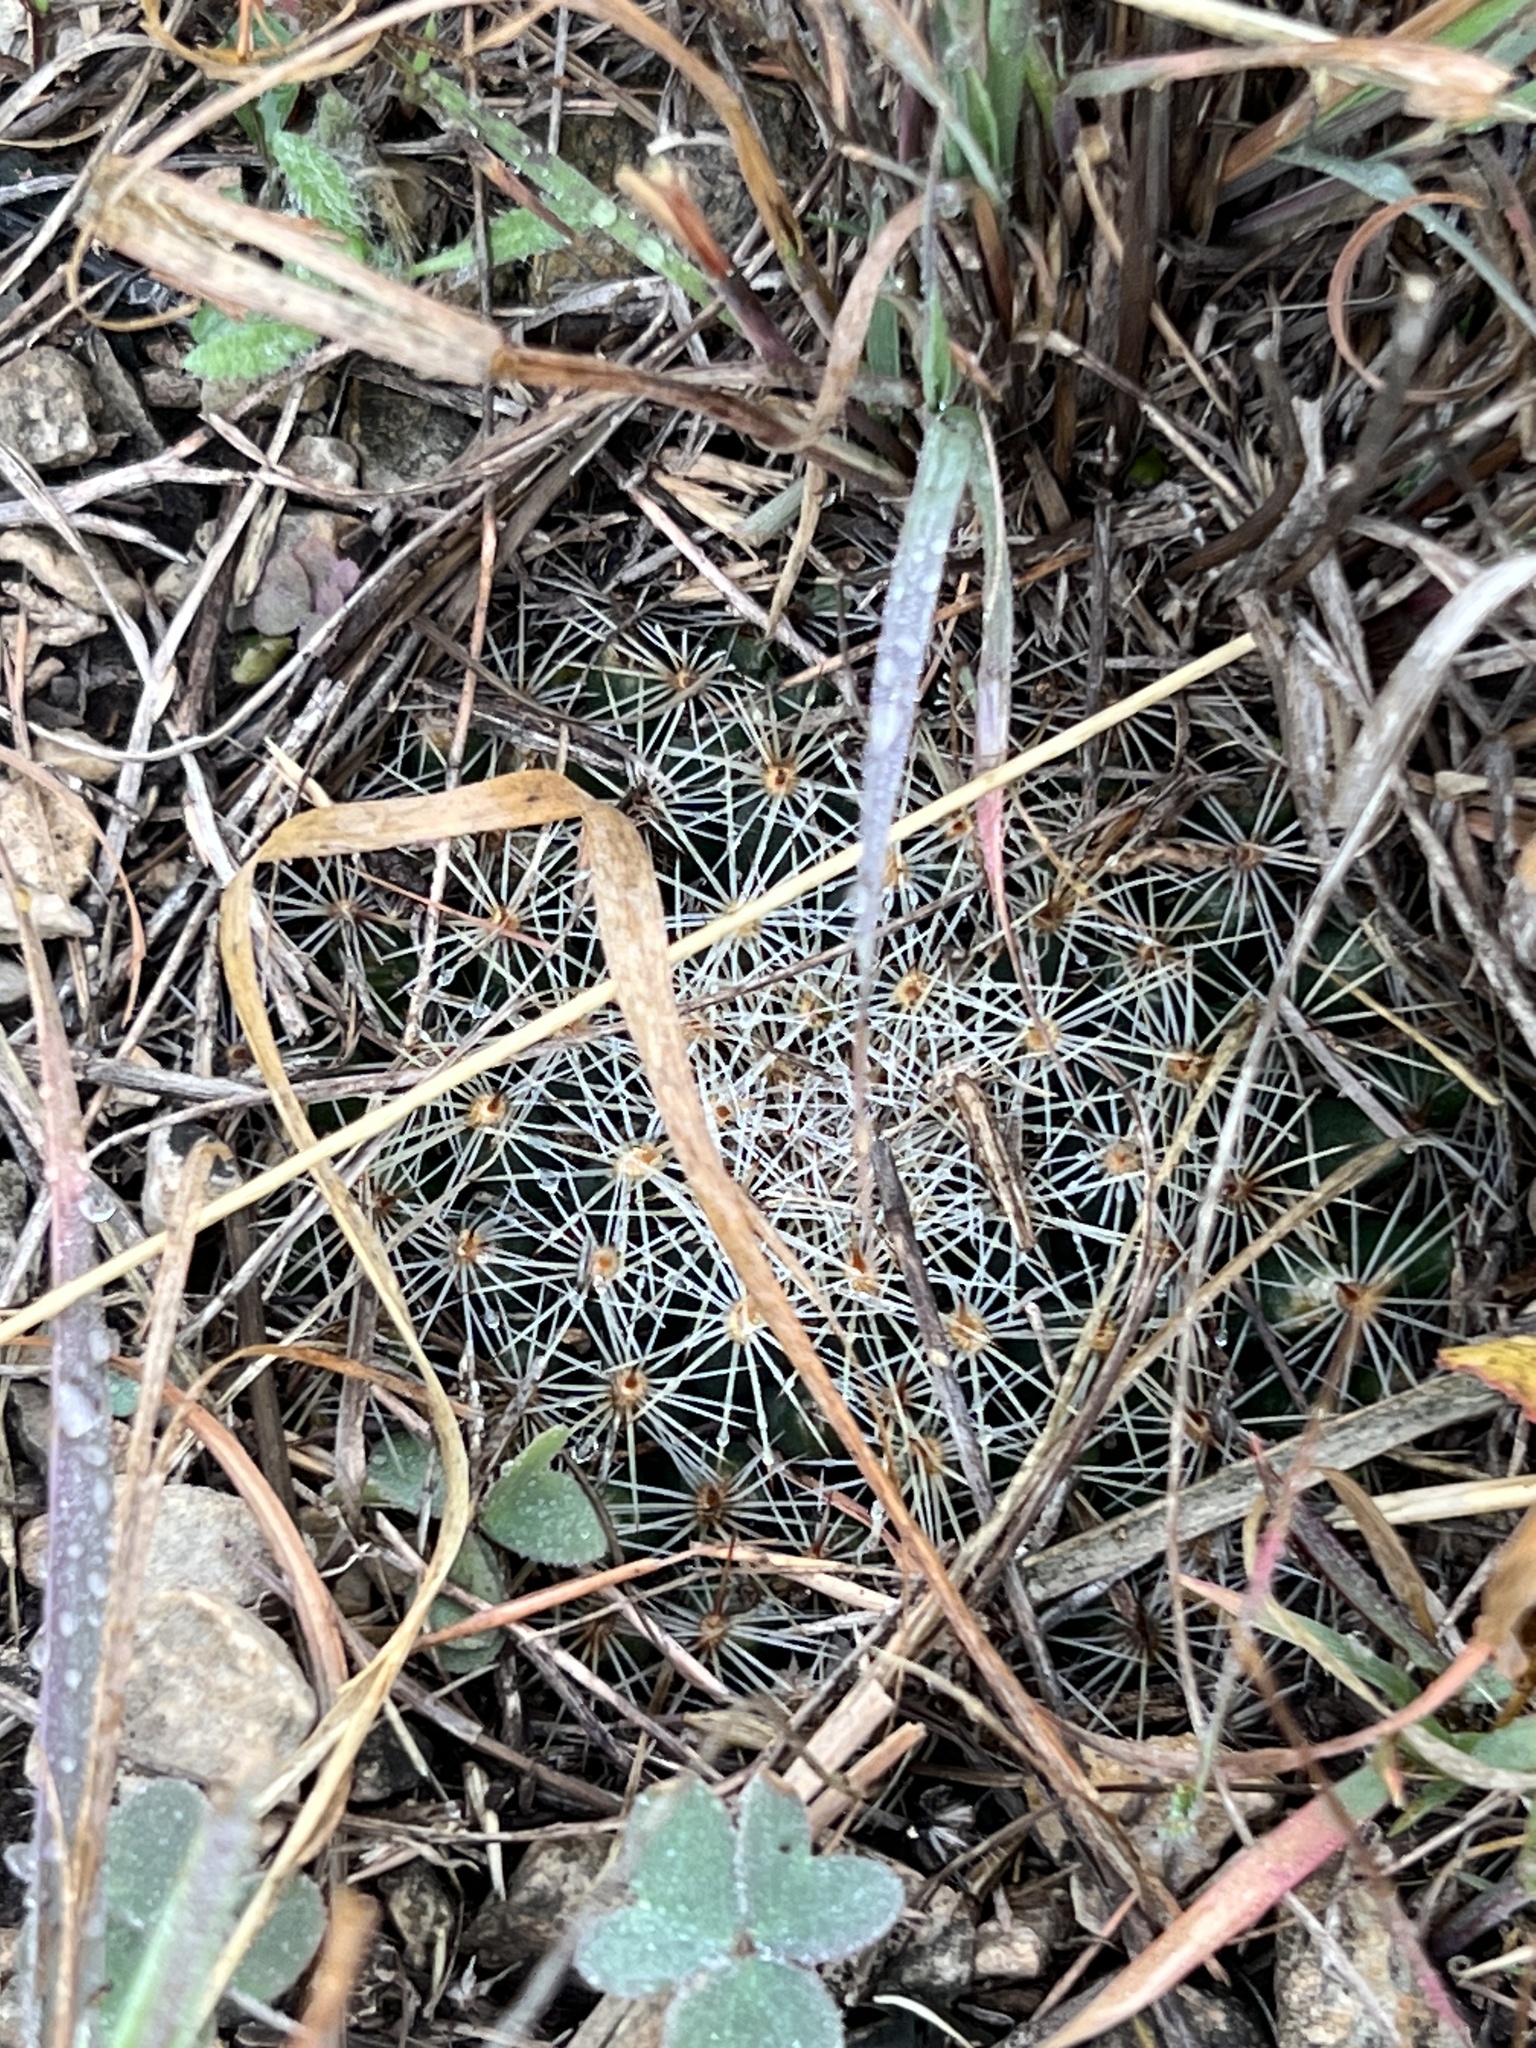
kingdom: Plantae
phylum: Tracheophyta
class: Magnoliopsida
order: Caryophyllales
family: Cactaceae
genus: Mammillaria
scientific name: Mammillaria heyderi
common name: Little nipple cactus
